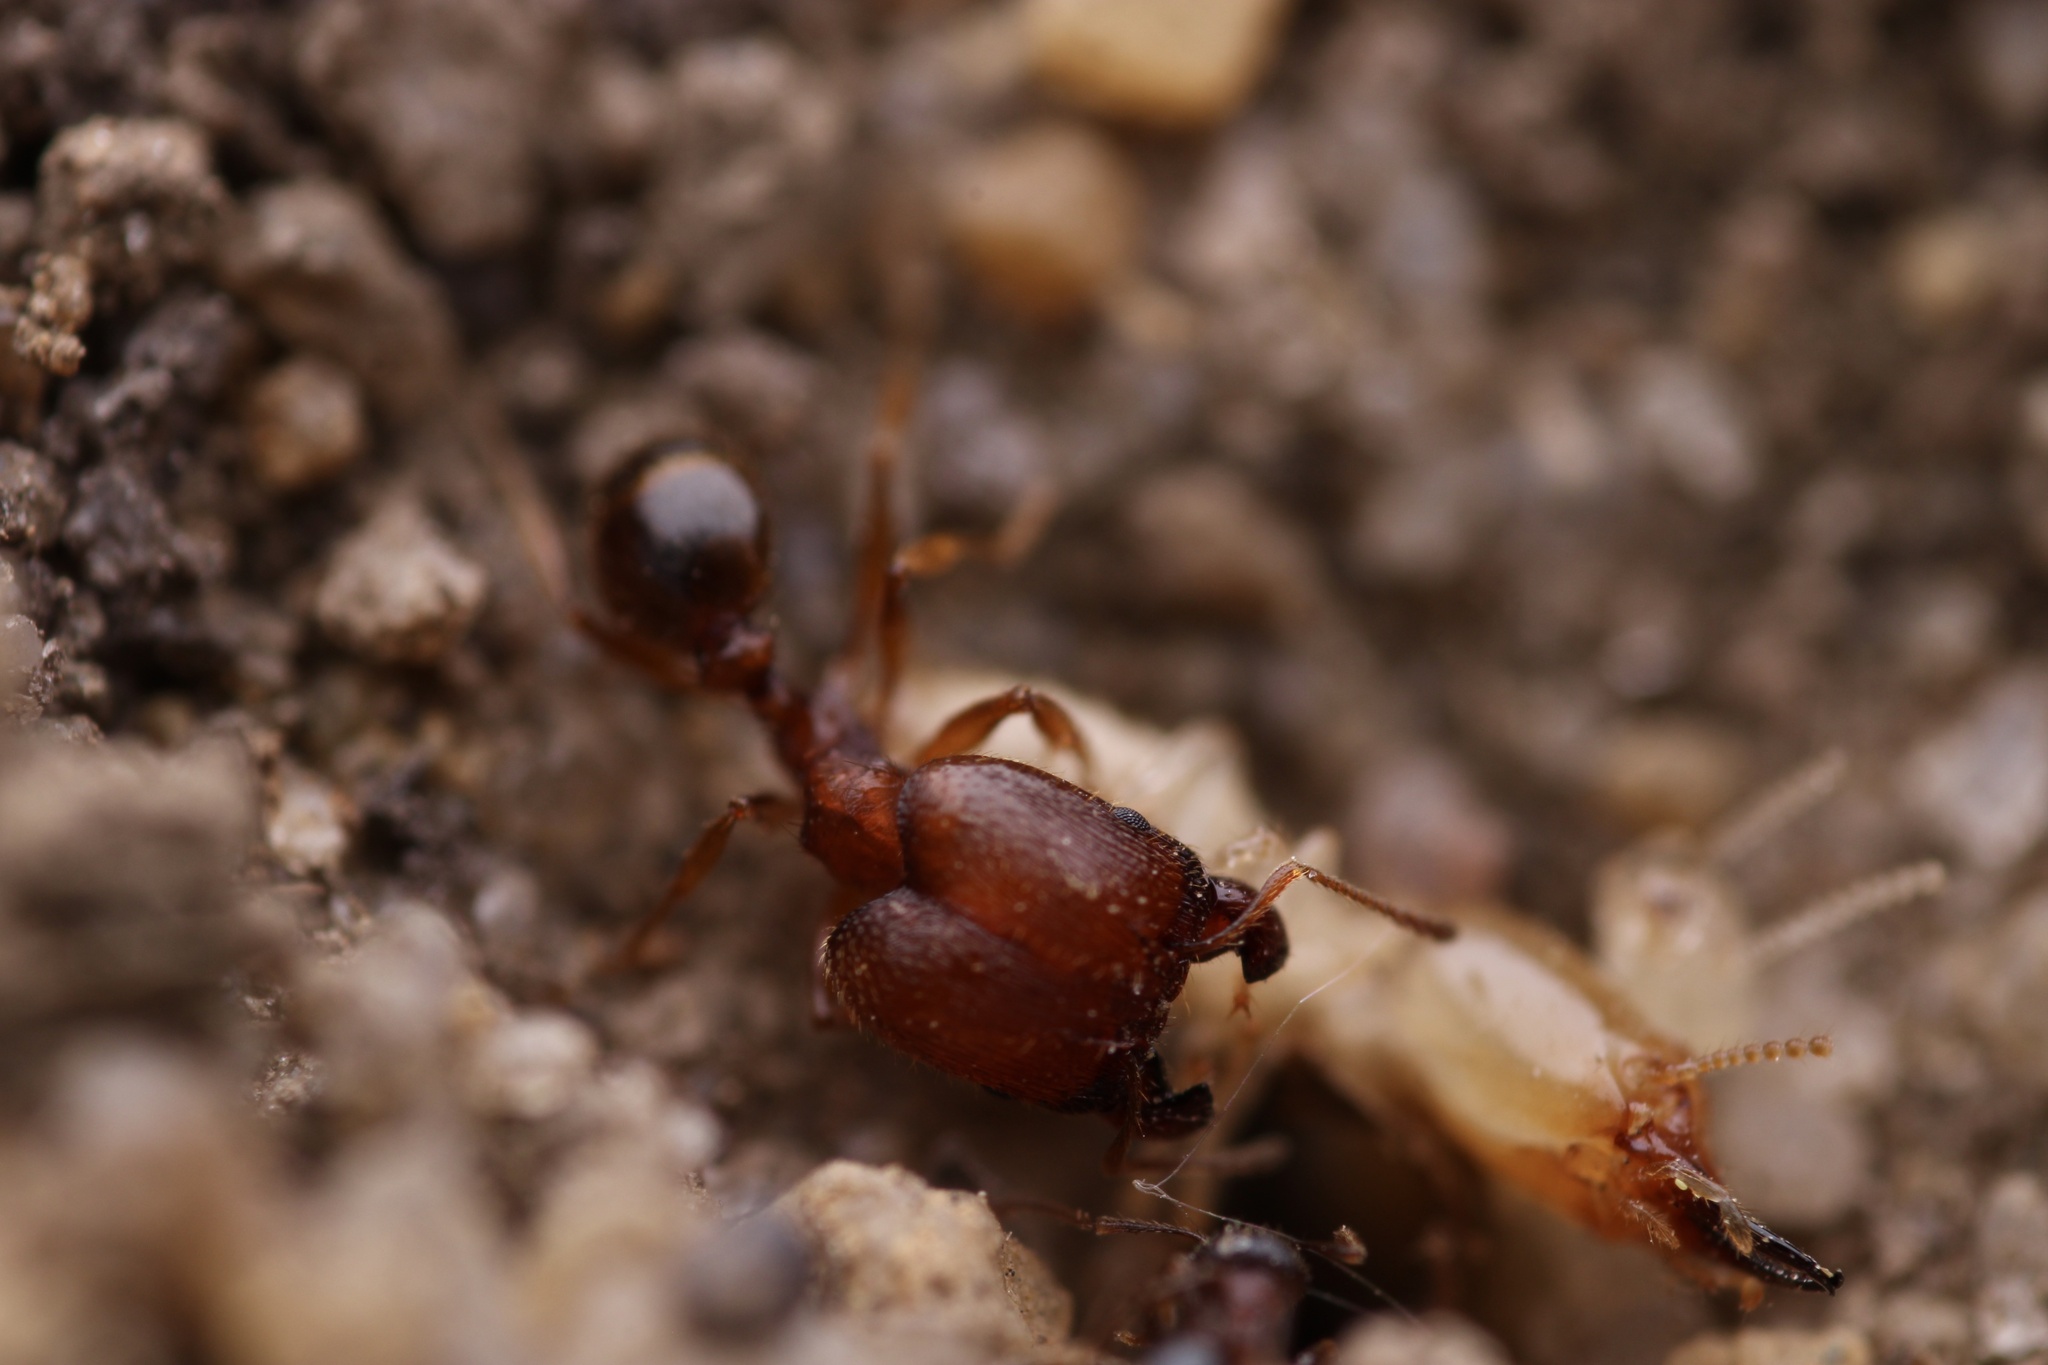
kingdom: Animalia
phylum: Arthropoda
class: Insecta
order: Hymenoptera
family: Formicidae
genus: Pheidole
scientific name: Pheidole pilifera
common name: Hairy big-headed ant
